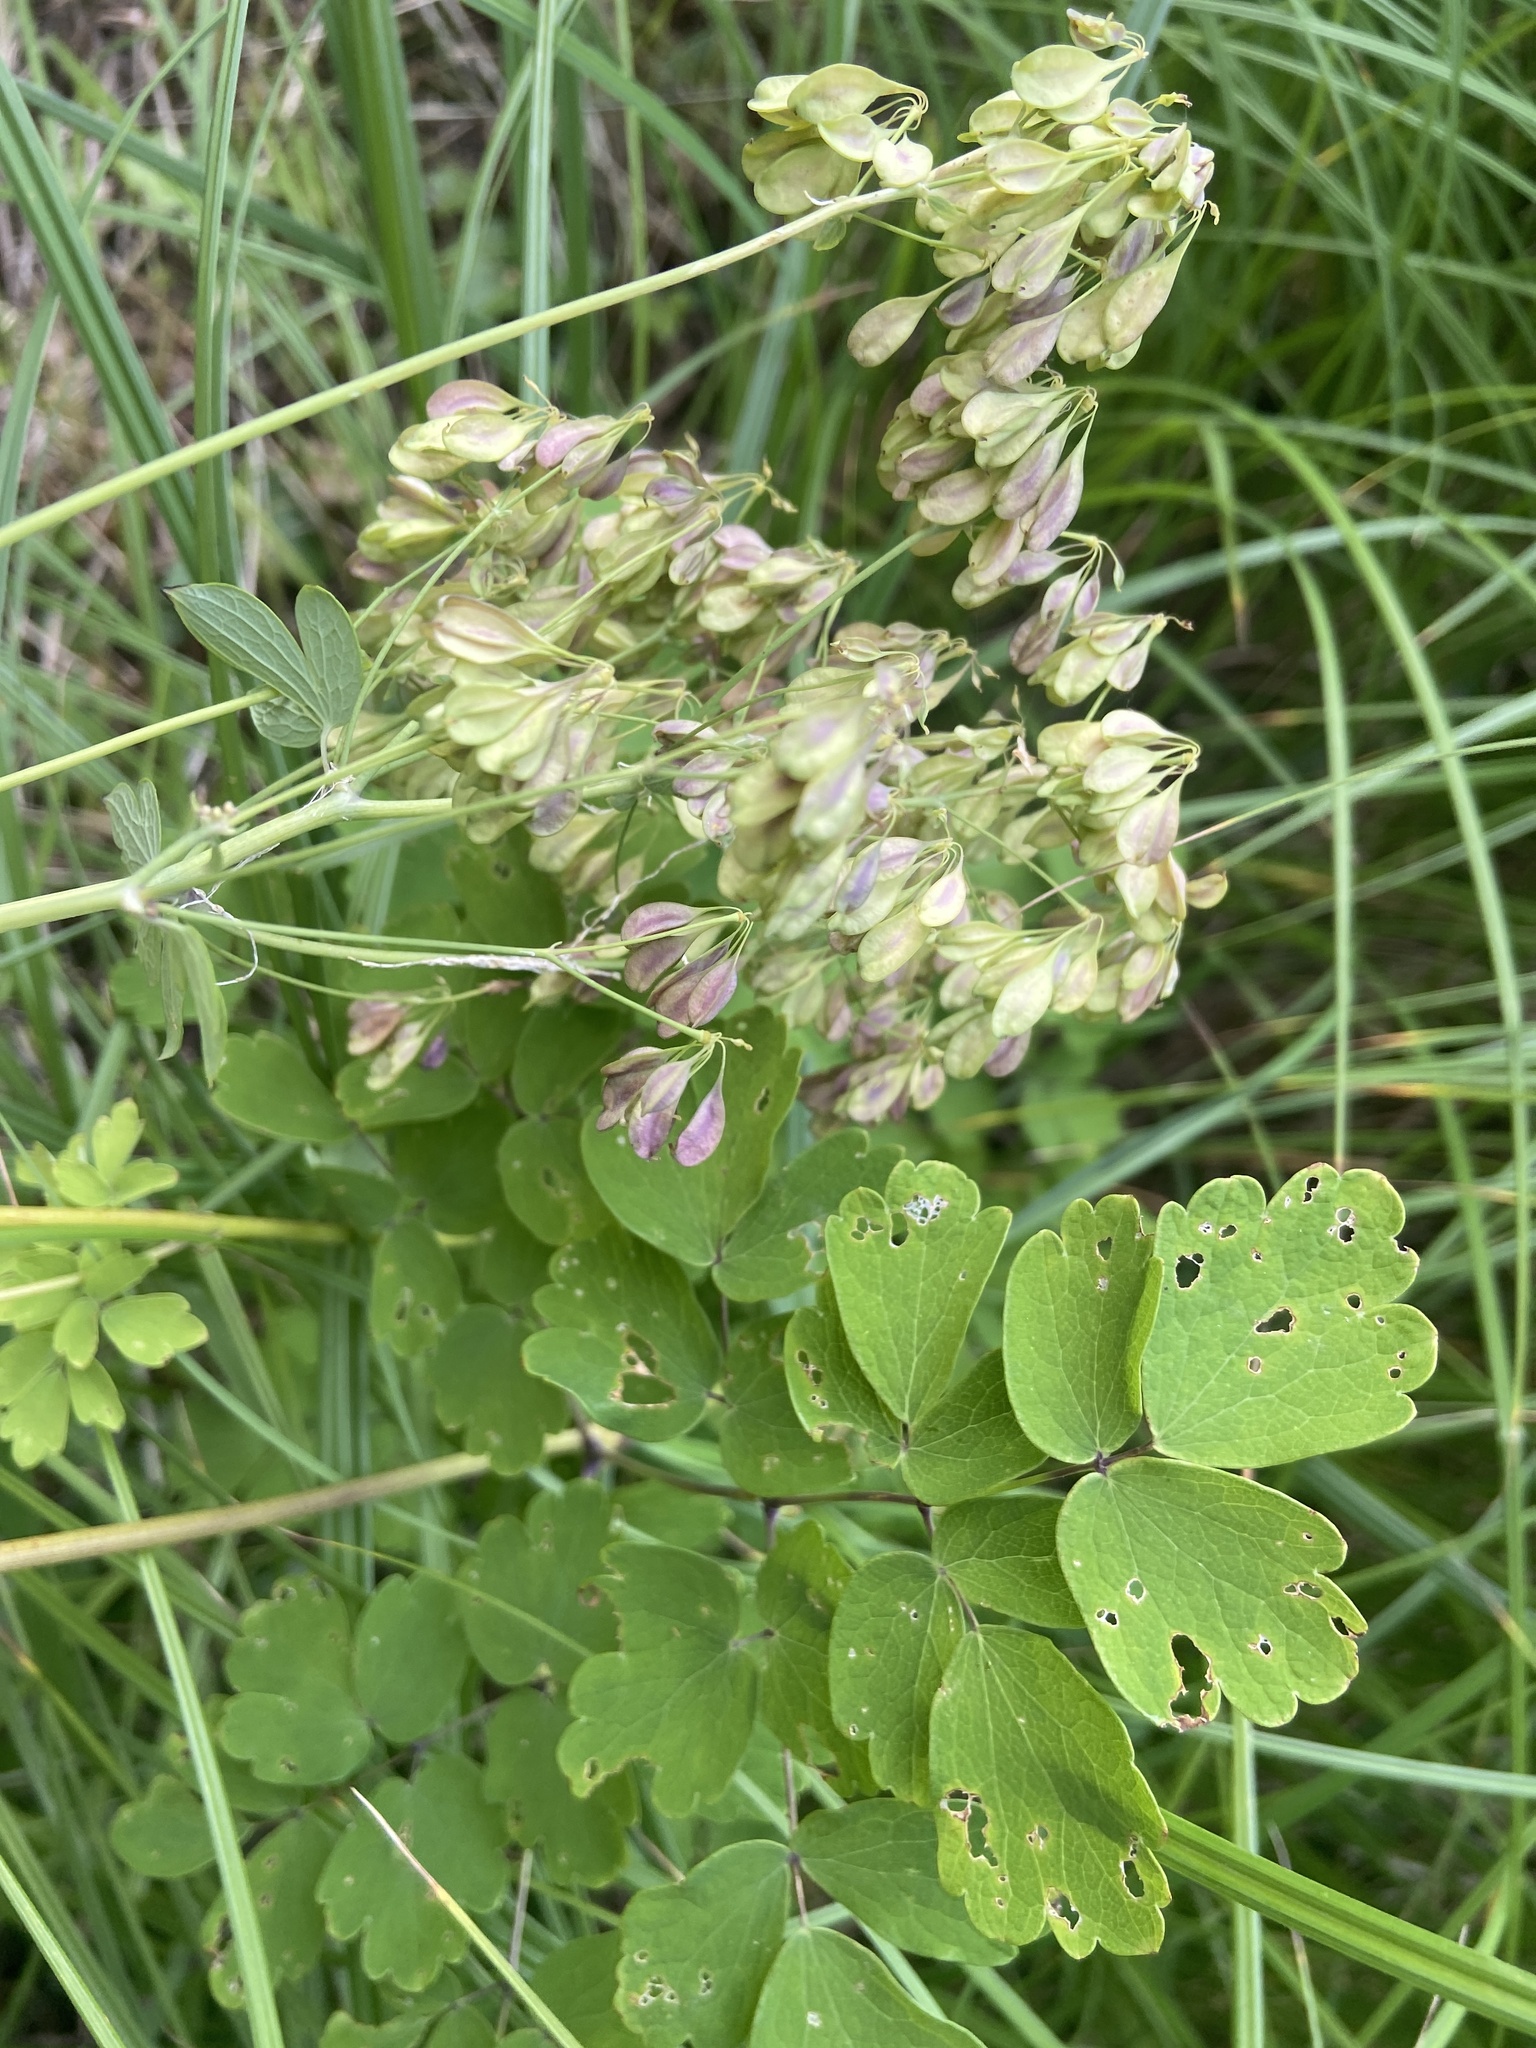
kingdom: Plantae
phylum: Tracheophyta
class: Magnoliopsida
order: Ranunculales
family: Ranunculaceae
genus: Thalictrum
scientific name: Thalictrum aquilegiifolium
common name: French meadow-rue
